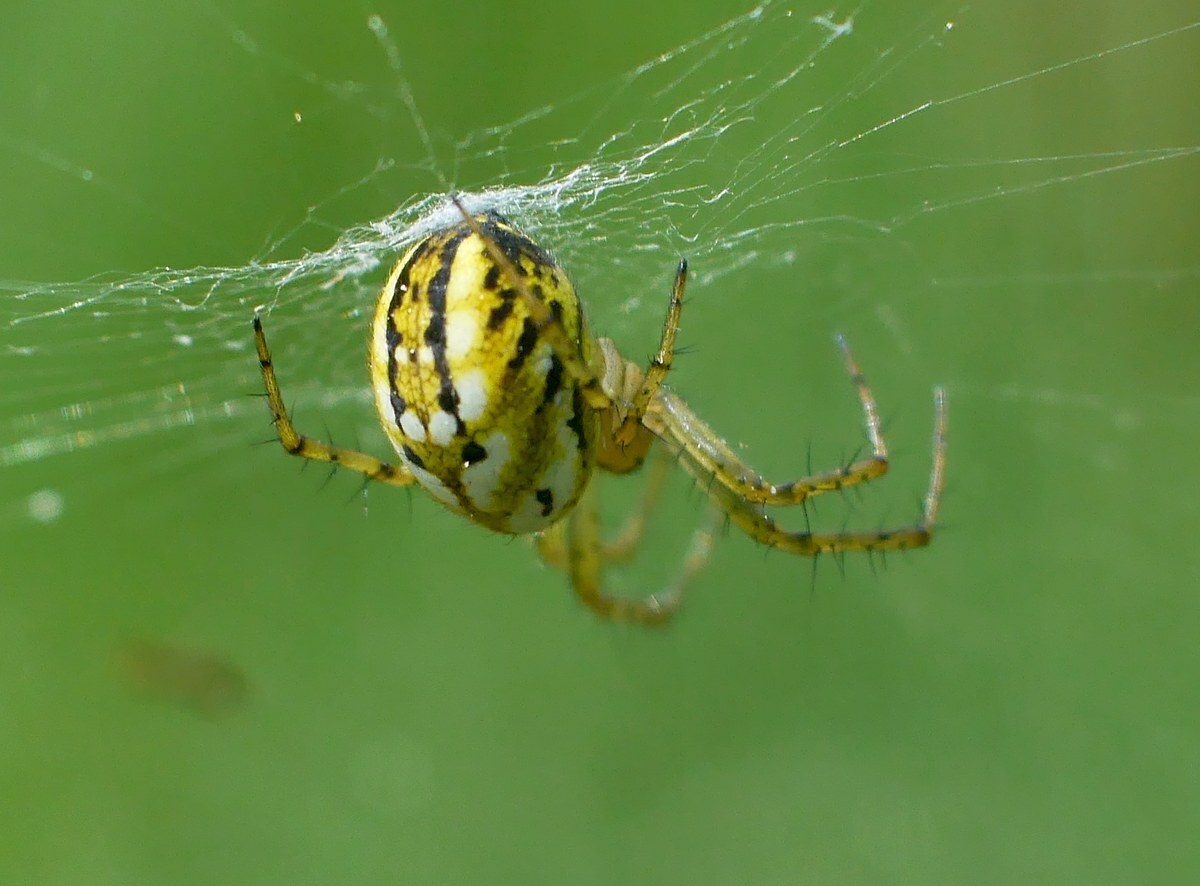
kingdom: Animalia
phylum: Arthropoda
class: Arachnida
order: Araneae
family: Araneidae
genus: Mangora
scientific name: Mangora acalypha
